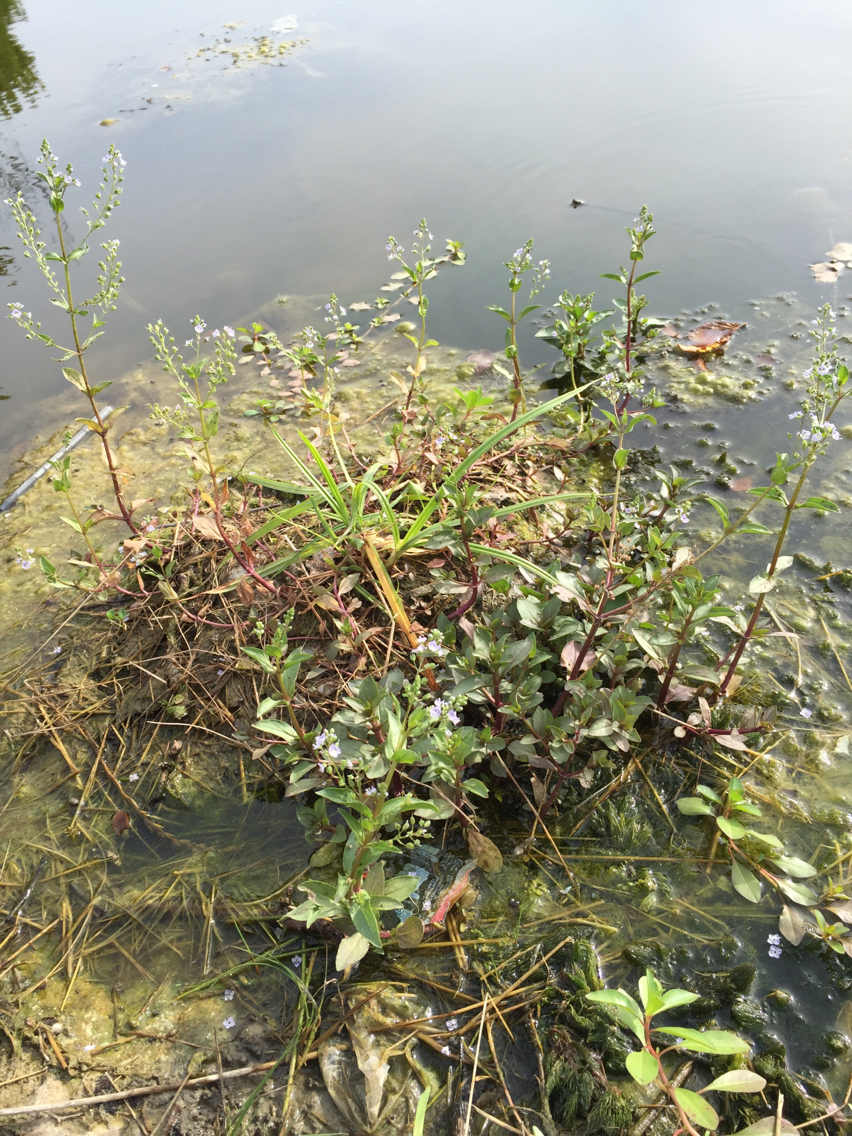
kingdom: Plantae
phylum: Tracheophyta
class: Magnoliopsida
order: Lamiales
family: Plantaginaceae
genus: Veronica
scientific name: Veronica anagallis-aquatica
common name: Water speedwell
